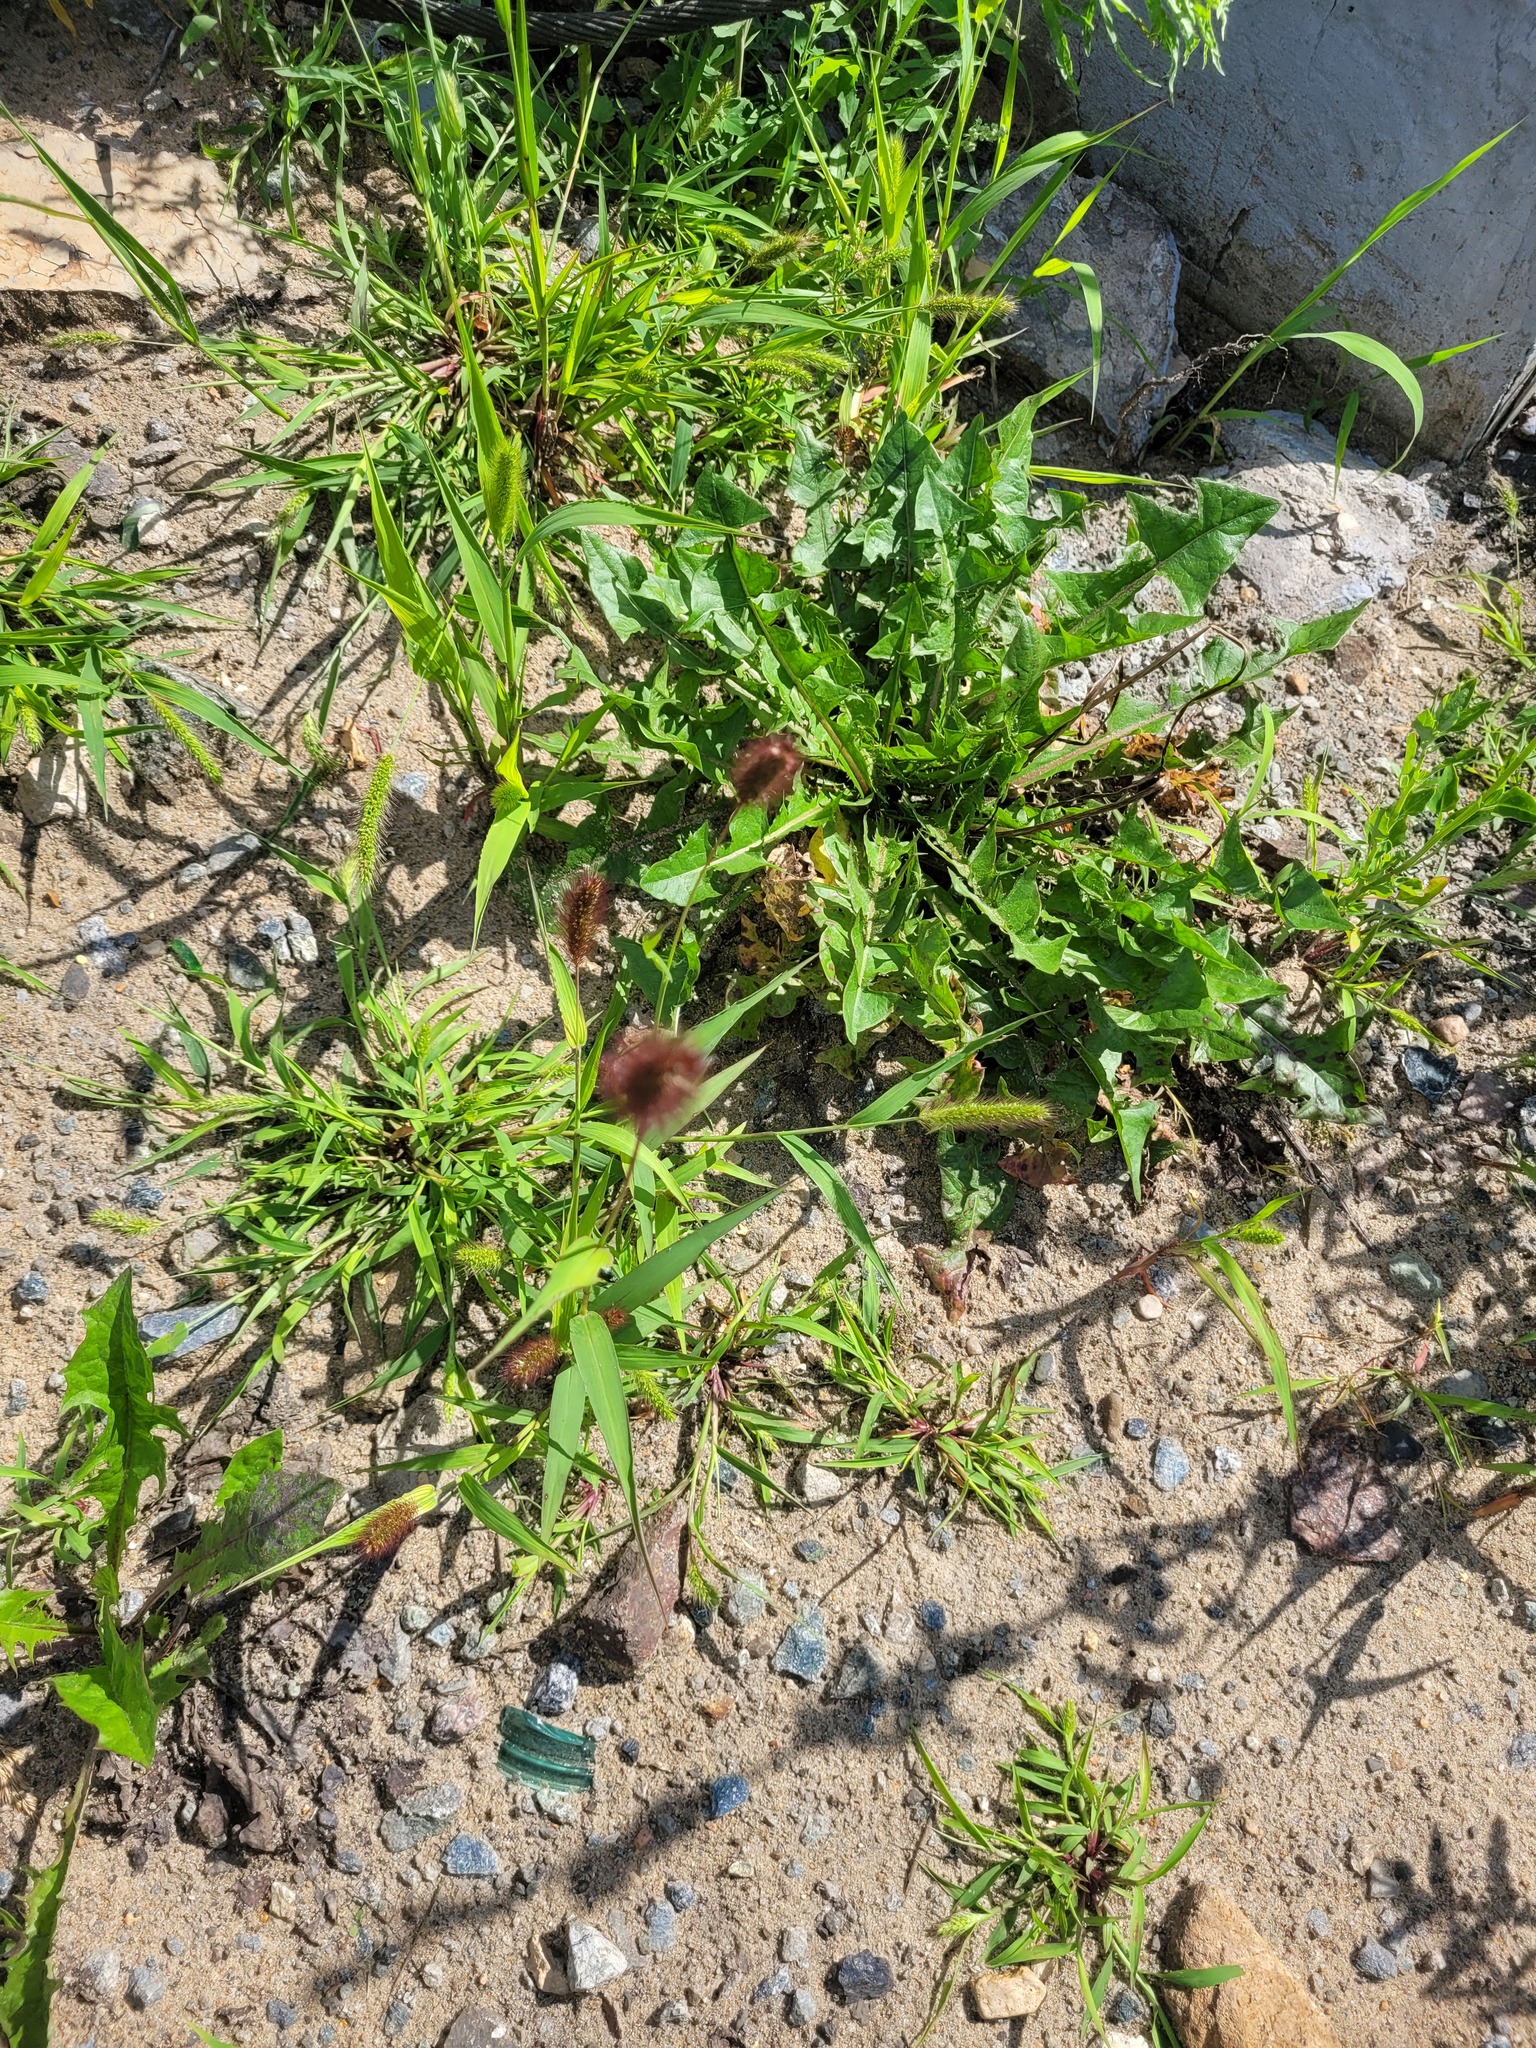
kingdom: Plantae
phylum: Tracheophyta
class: Liliopsida
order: Poales
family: Poaceae
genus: Setaria
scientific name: Setaria viridis
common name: Green bristlegrass
